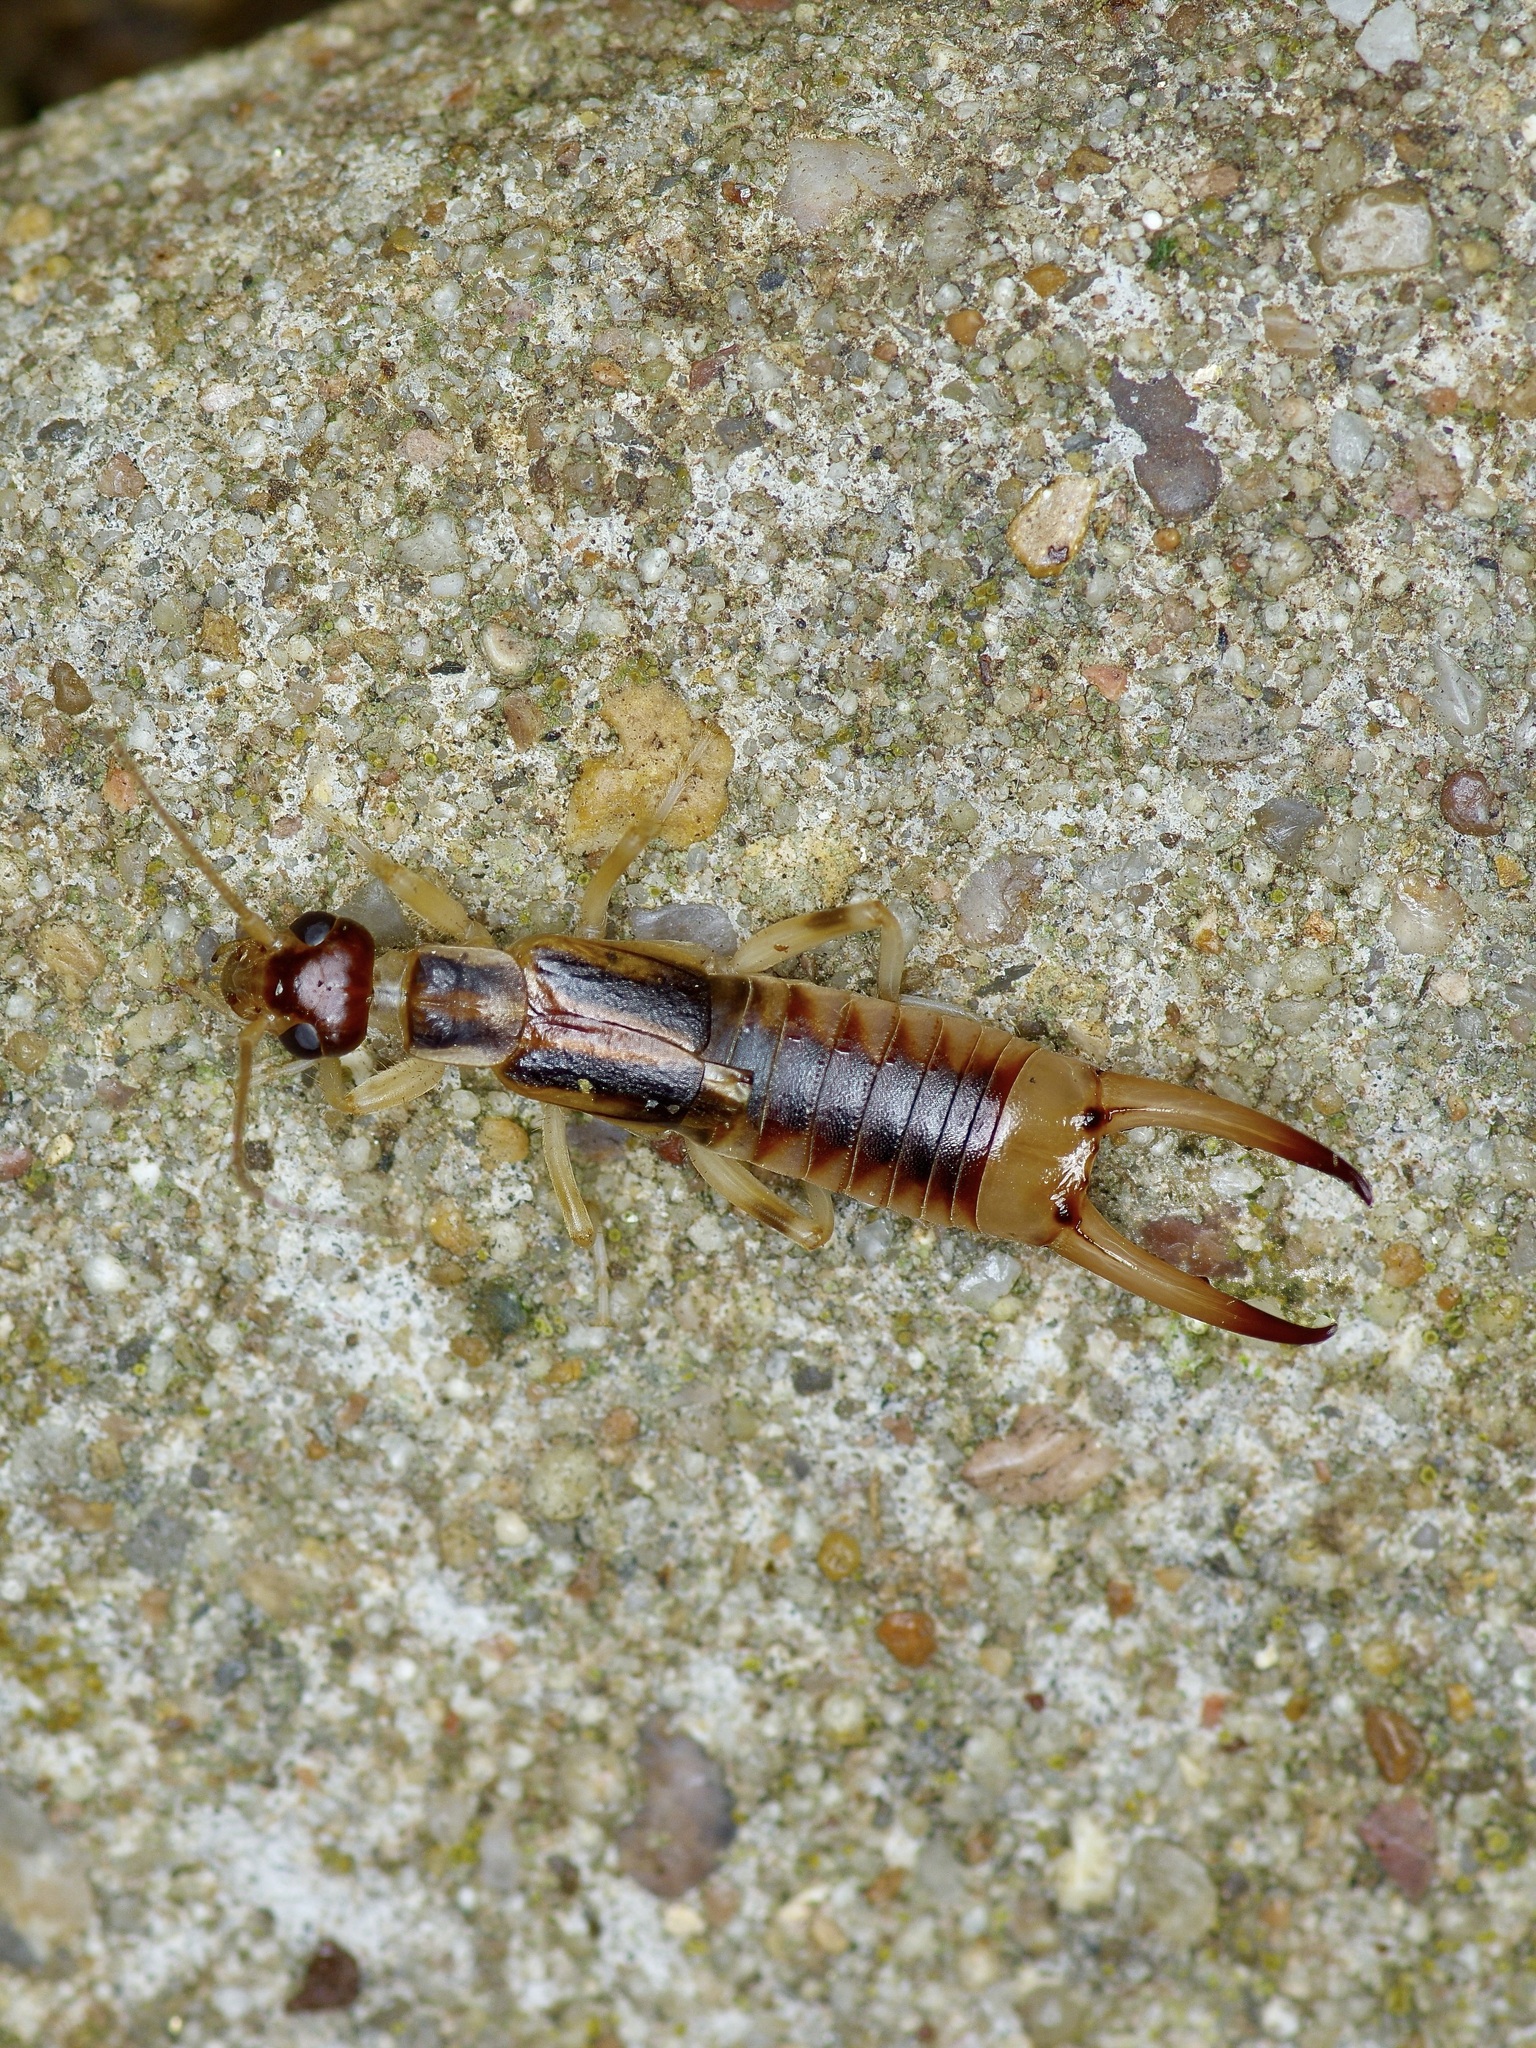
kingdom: Animalia
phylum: Arthropoda
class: Insecta
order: Dermaptera
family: Labiduridae
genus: Labidura
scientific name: Labidura riparia
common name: Striped earwig
